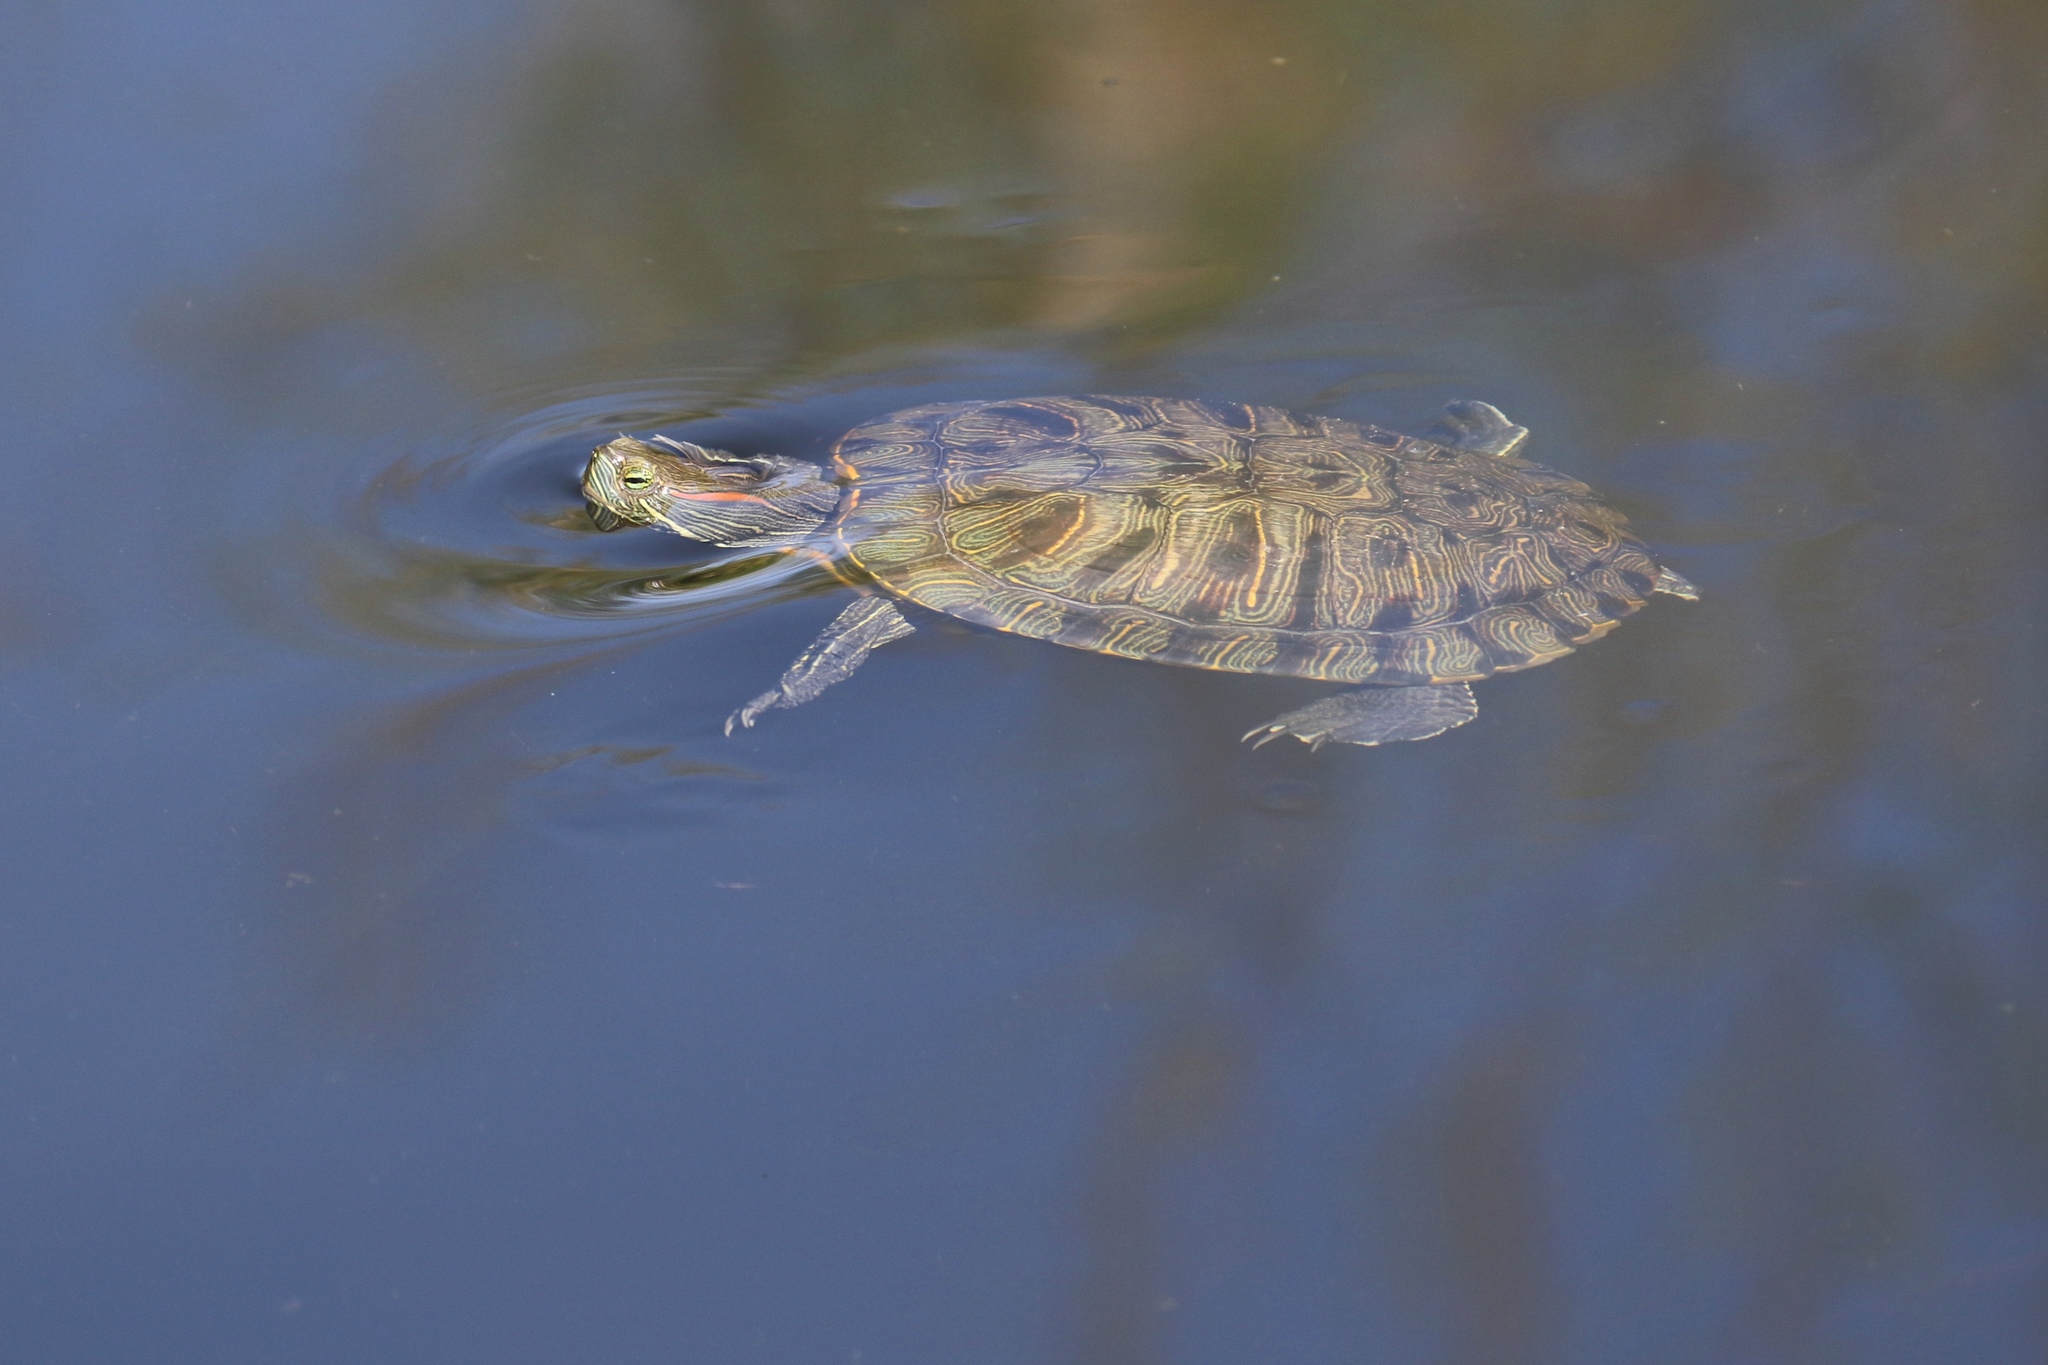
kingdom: Animalia
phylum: Chordata
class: Testudines
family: Emydidae
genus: Trachemys
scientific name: Trachemys scripta
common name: Slider
